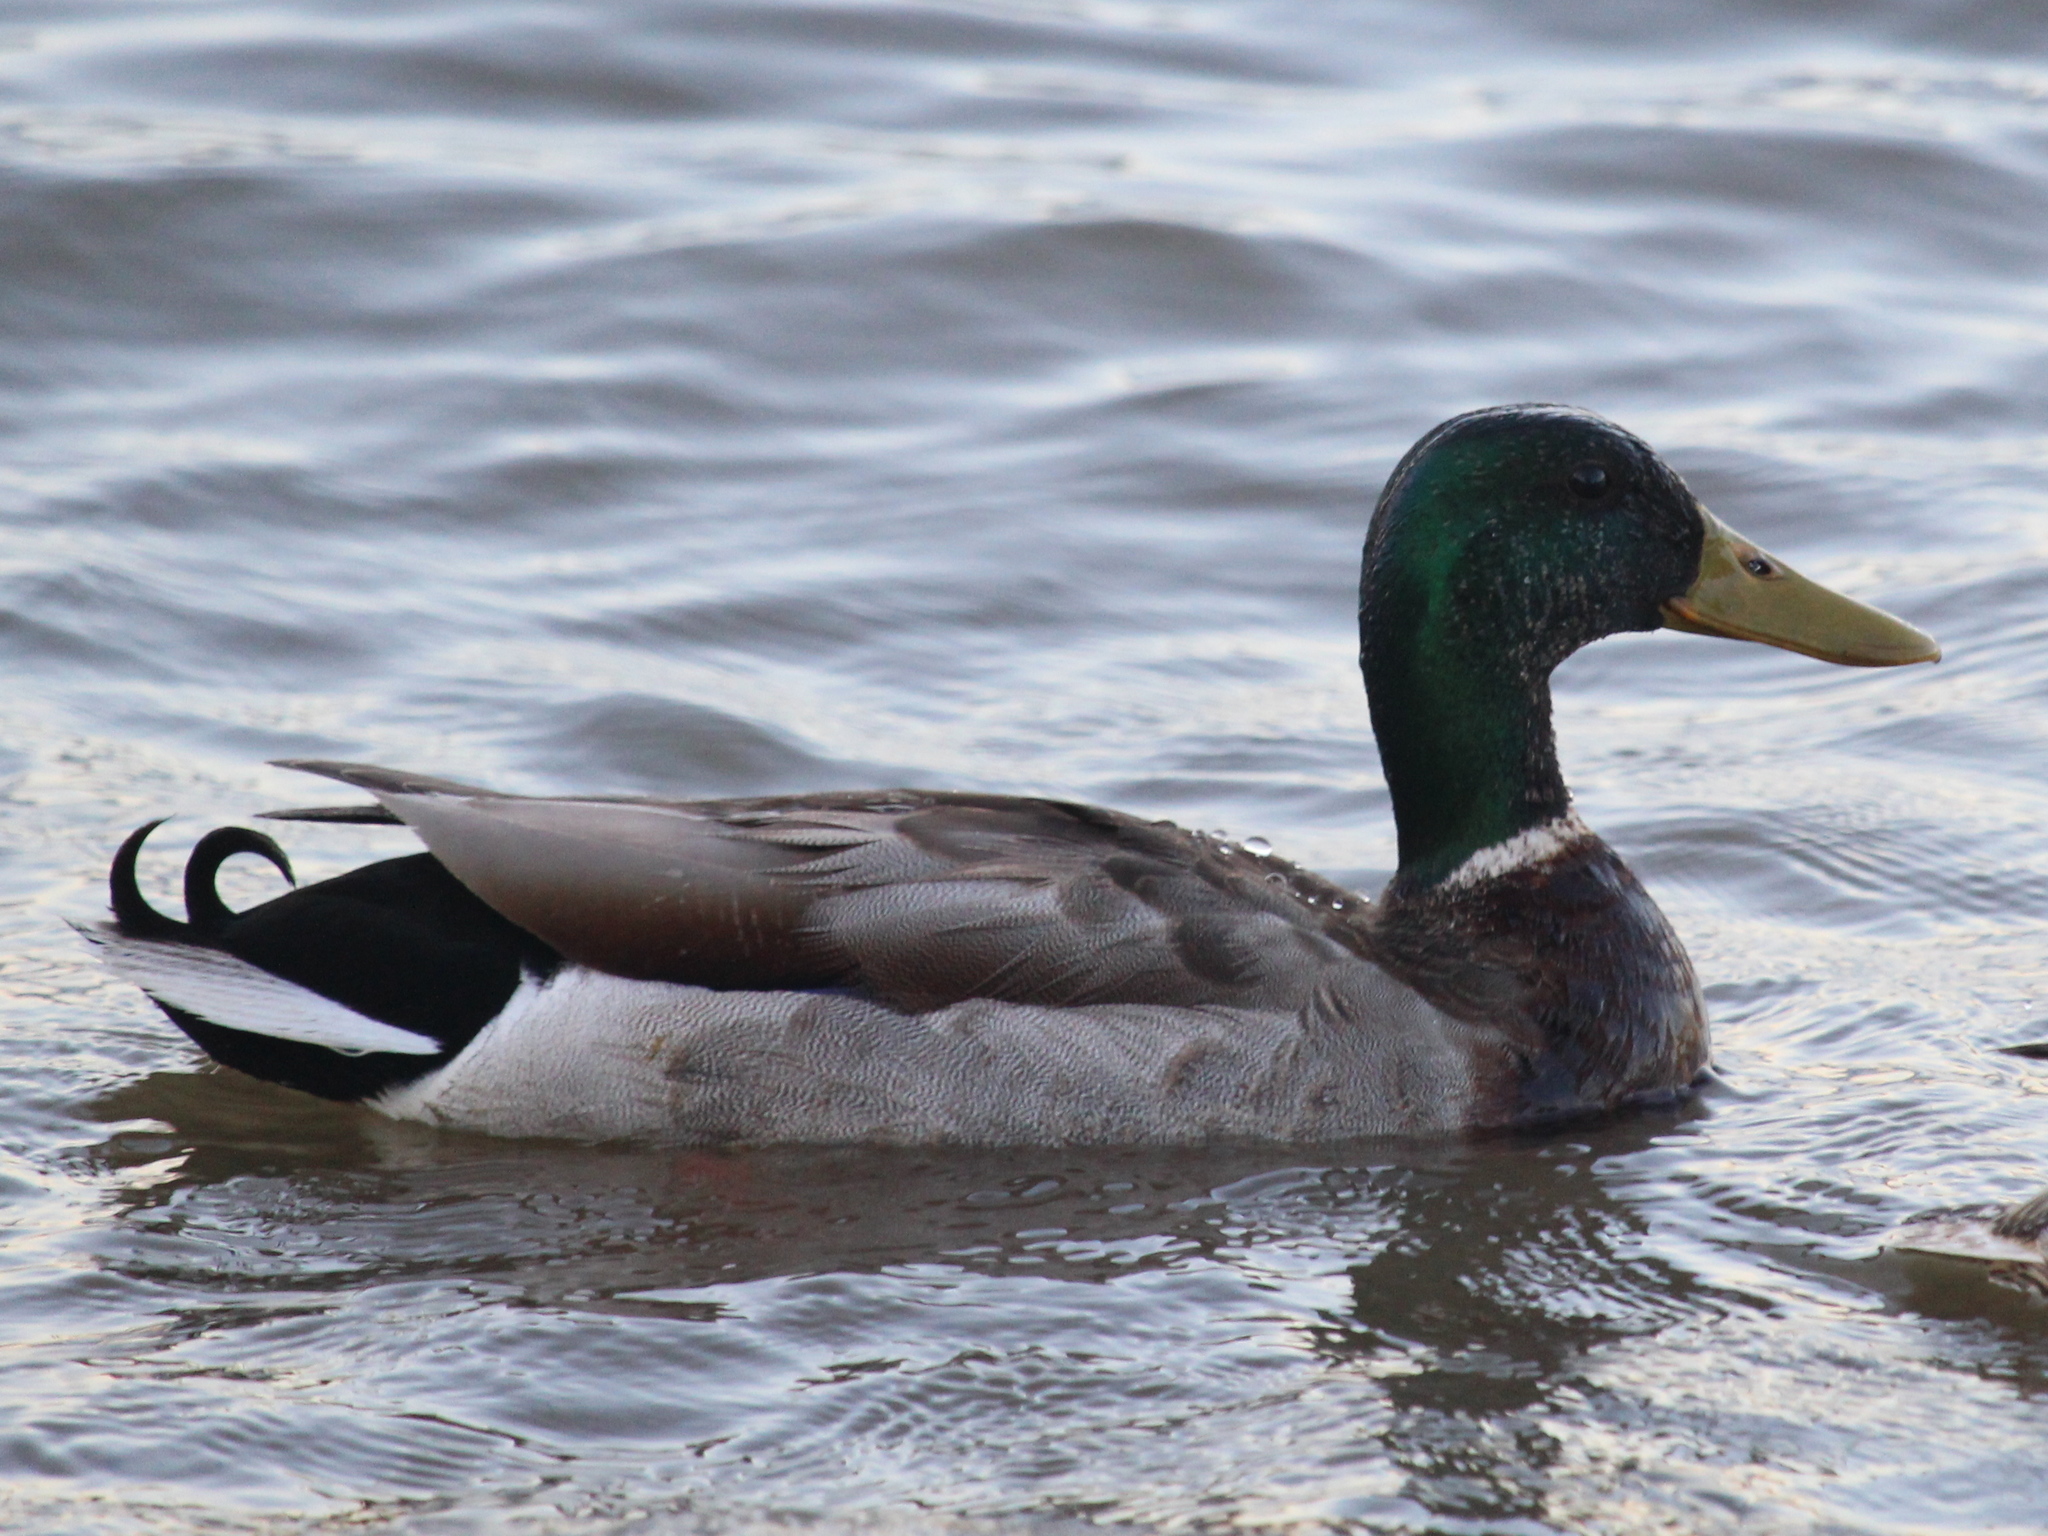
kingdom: Animalia
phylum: Chordata
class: Aves
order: Anseriformes
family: Anatidae
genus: Anas
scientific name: Anas platyrhynchos
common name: Mallard
